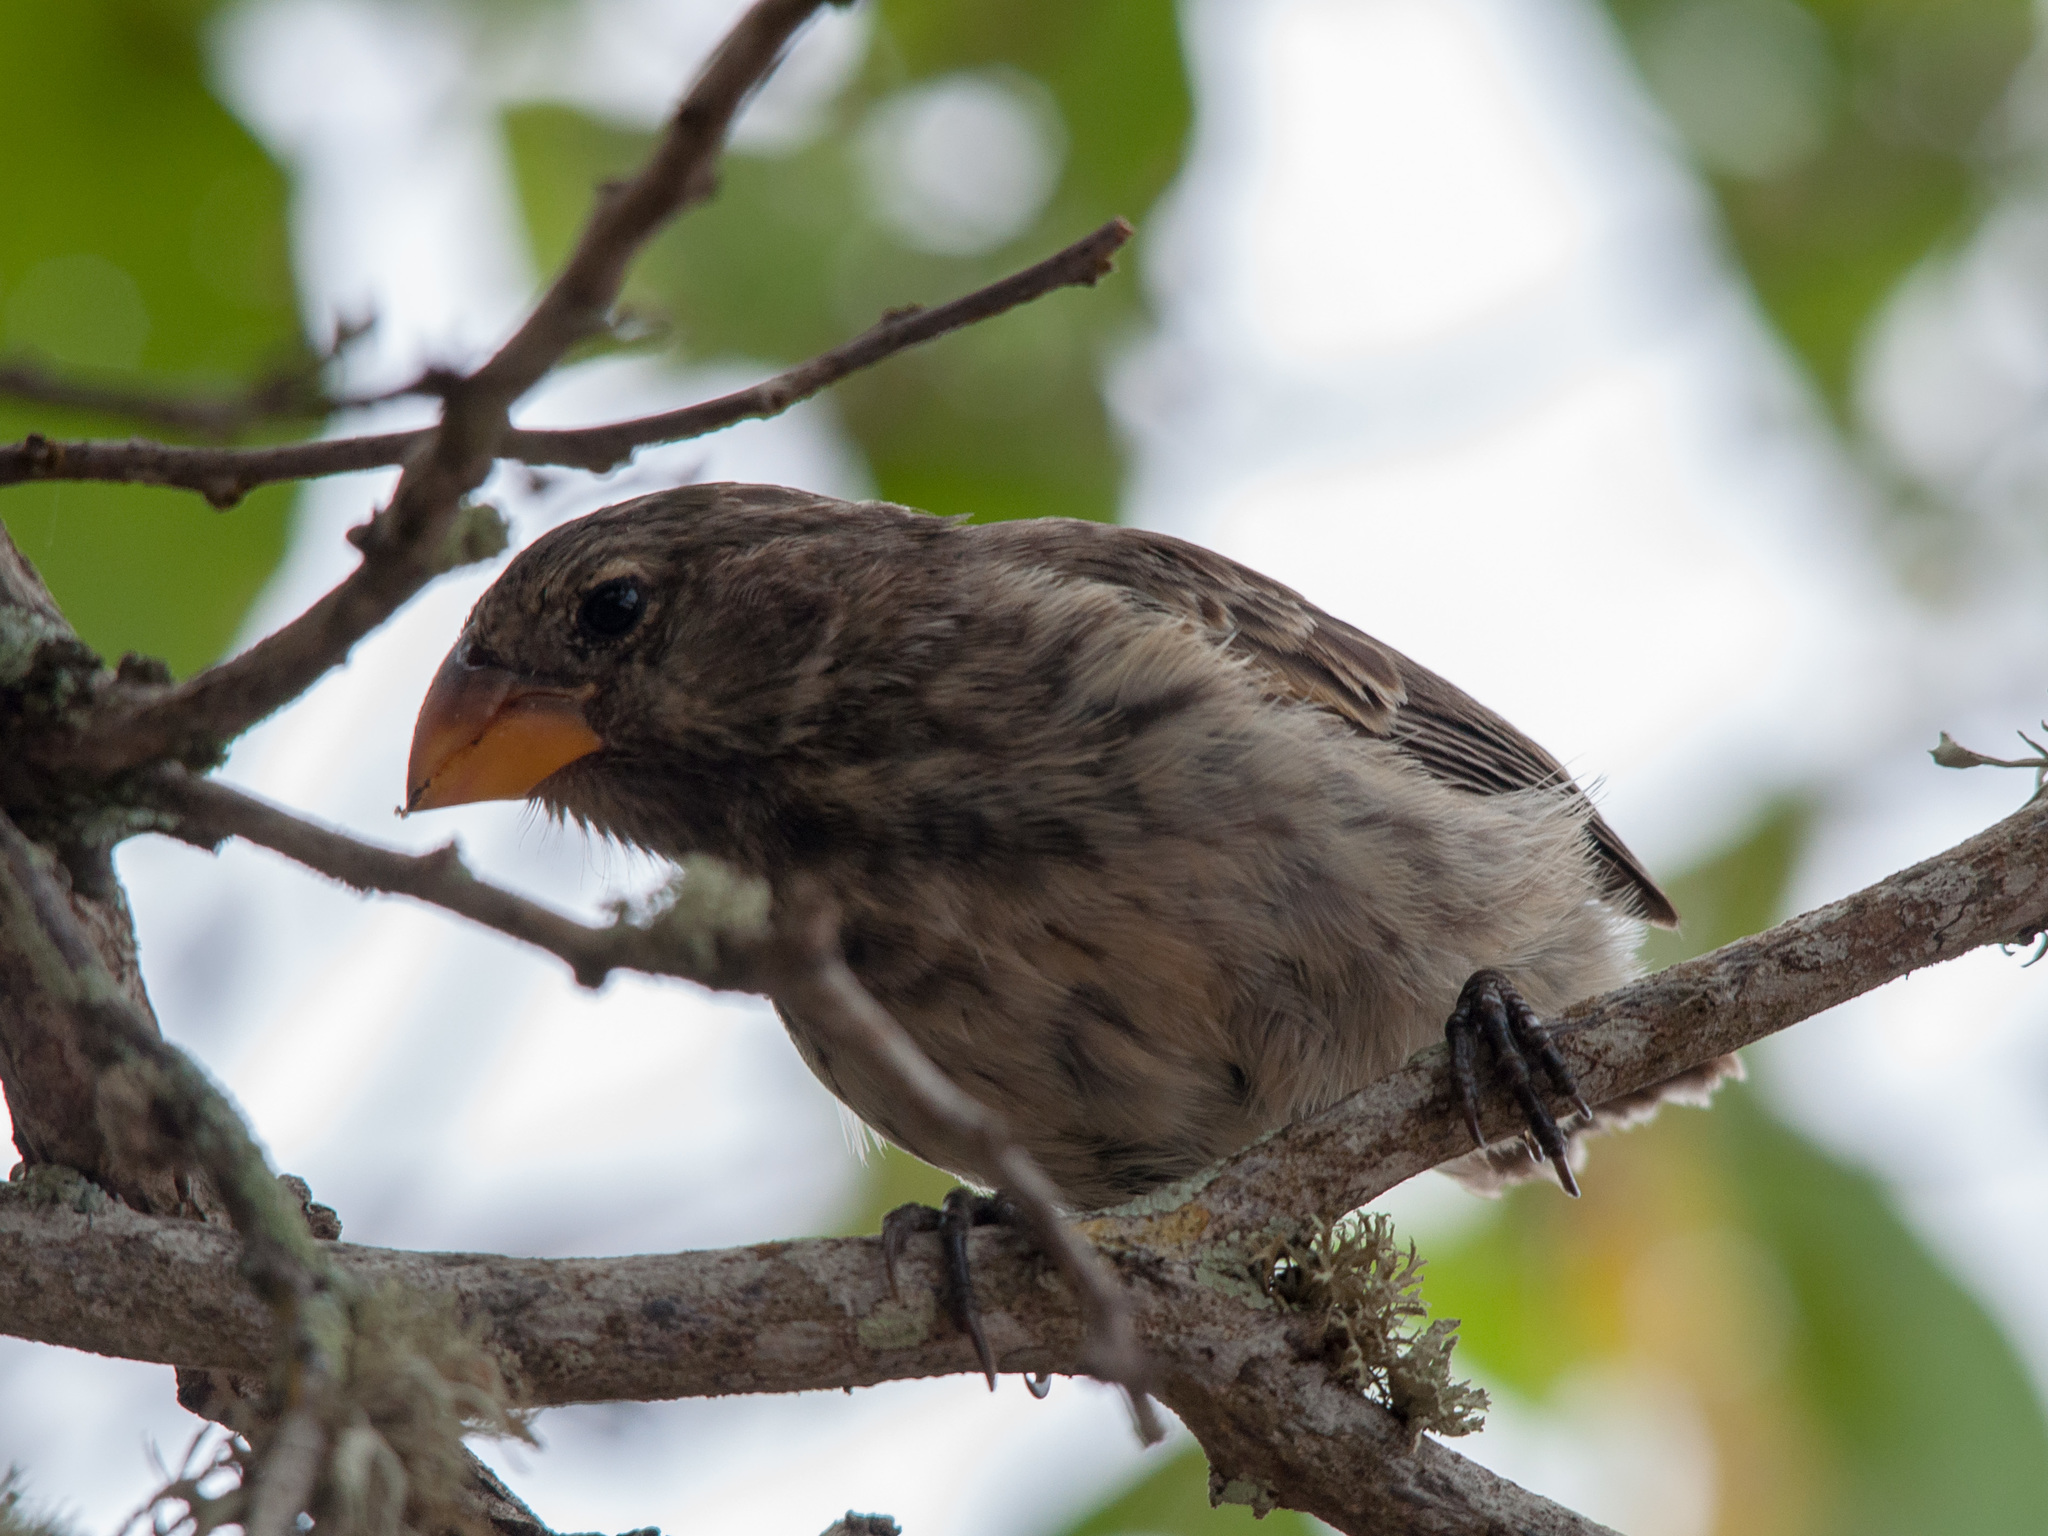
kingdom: Animalia
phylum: Chordata
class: Aves
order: Passeriformes
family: Thraupidae
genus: Geospiza
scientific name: Geospiza fortis
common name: Medium ground finch
